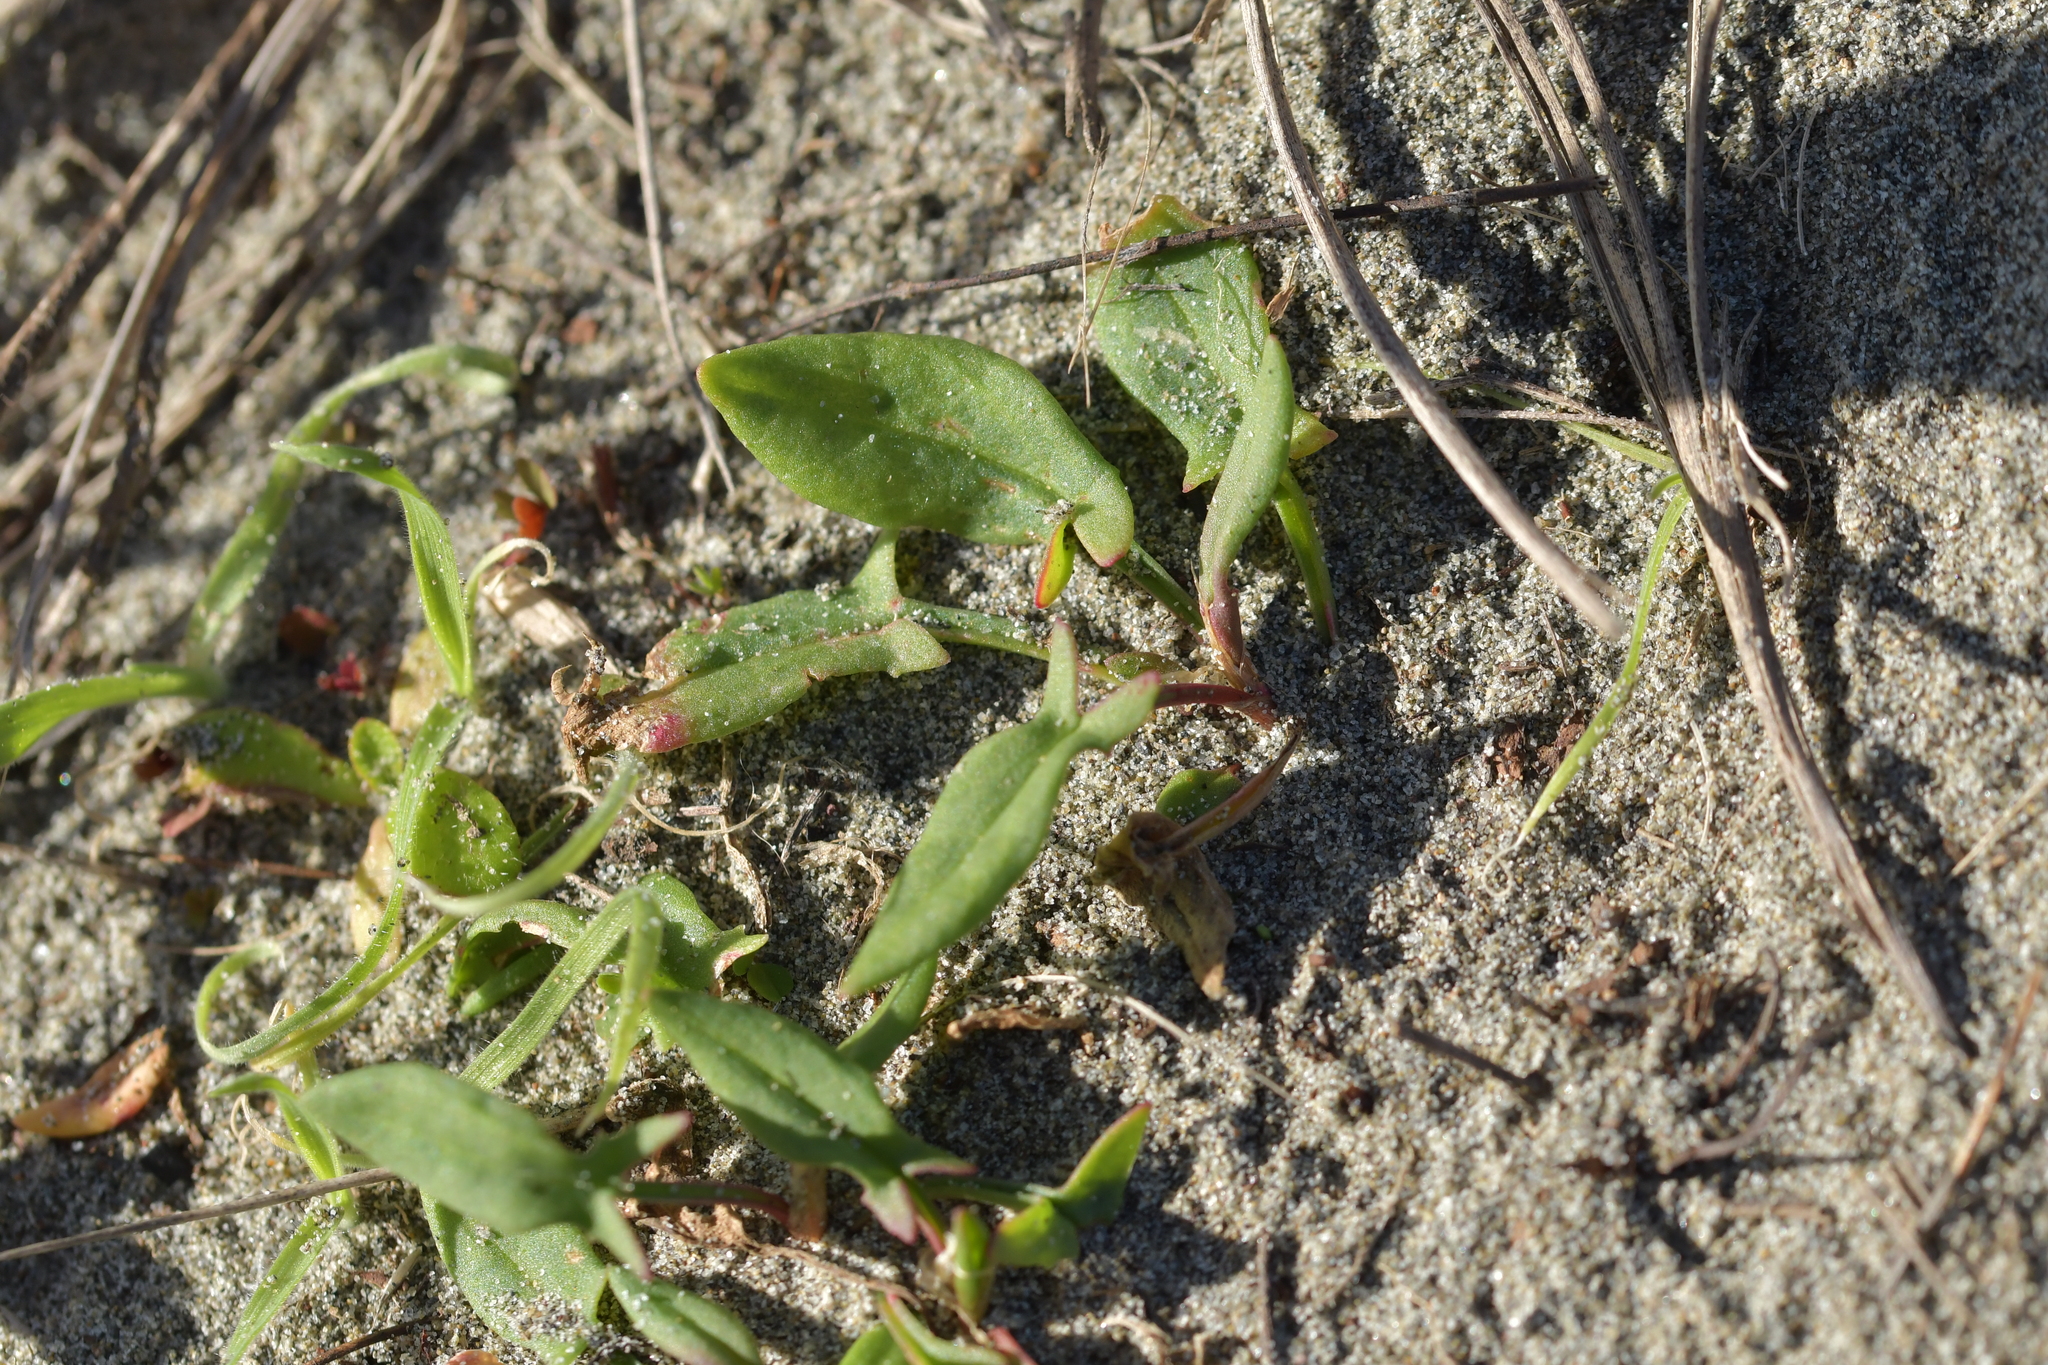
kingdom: Plantae
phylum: Tracheophyta
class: Magnoliopsida
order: Caryophyllales
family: Polygonaceae
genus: Rumex
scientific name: Rumex acetosella
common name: Common sheep sorrel
